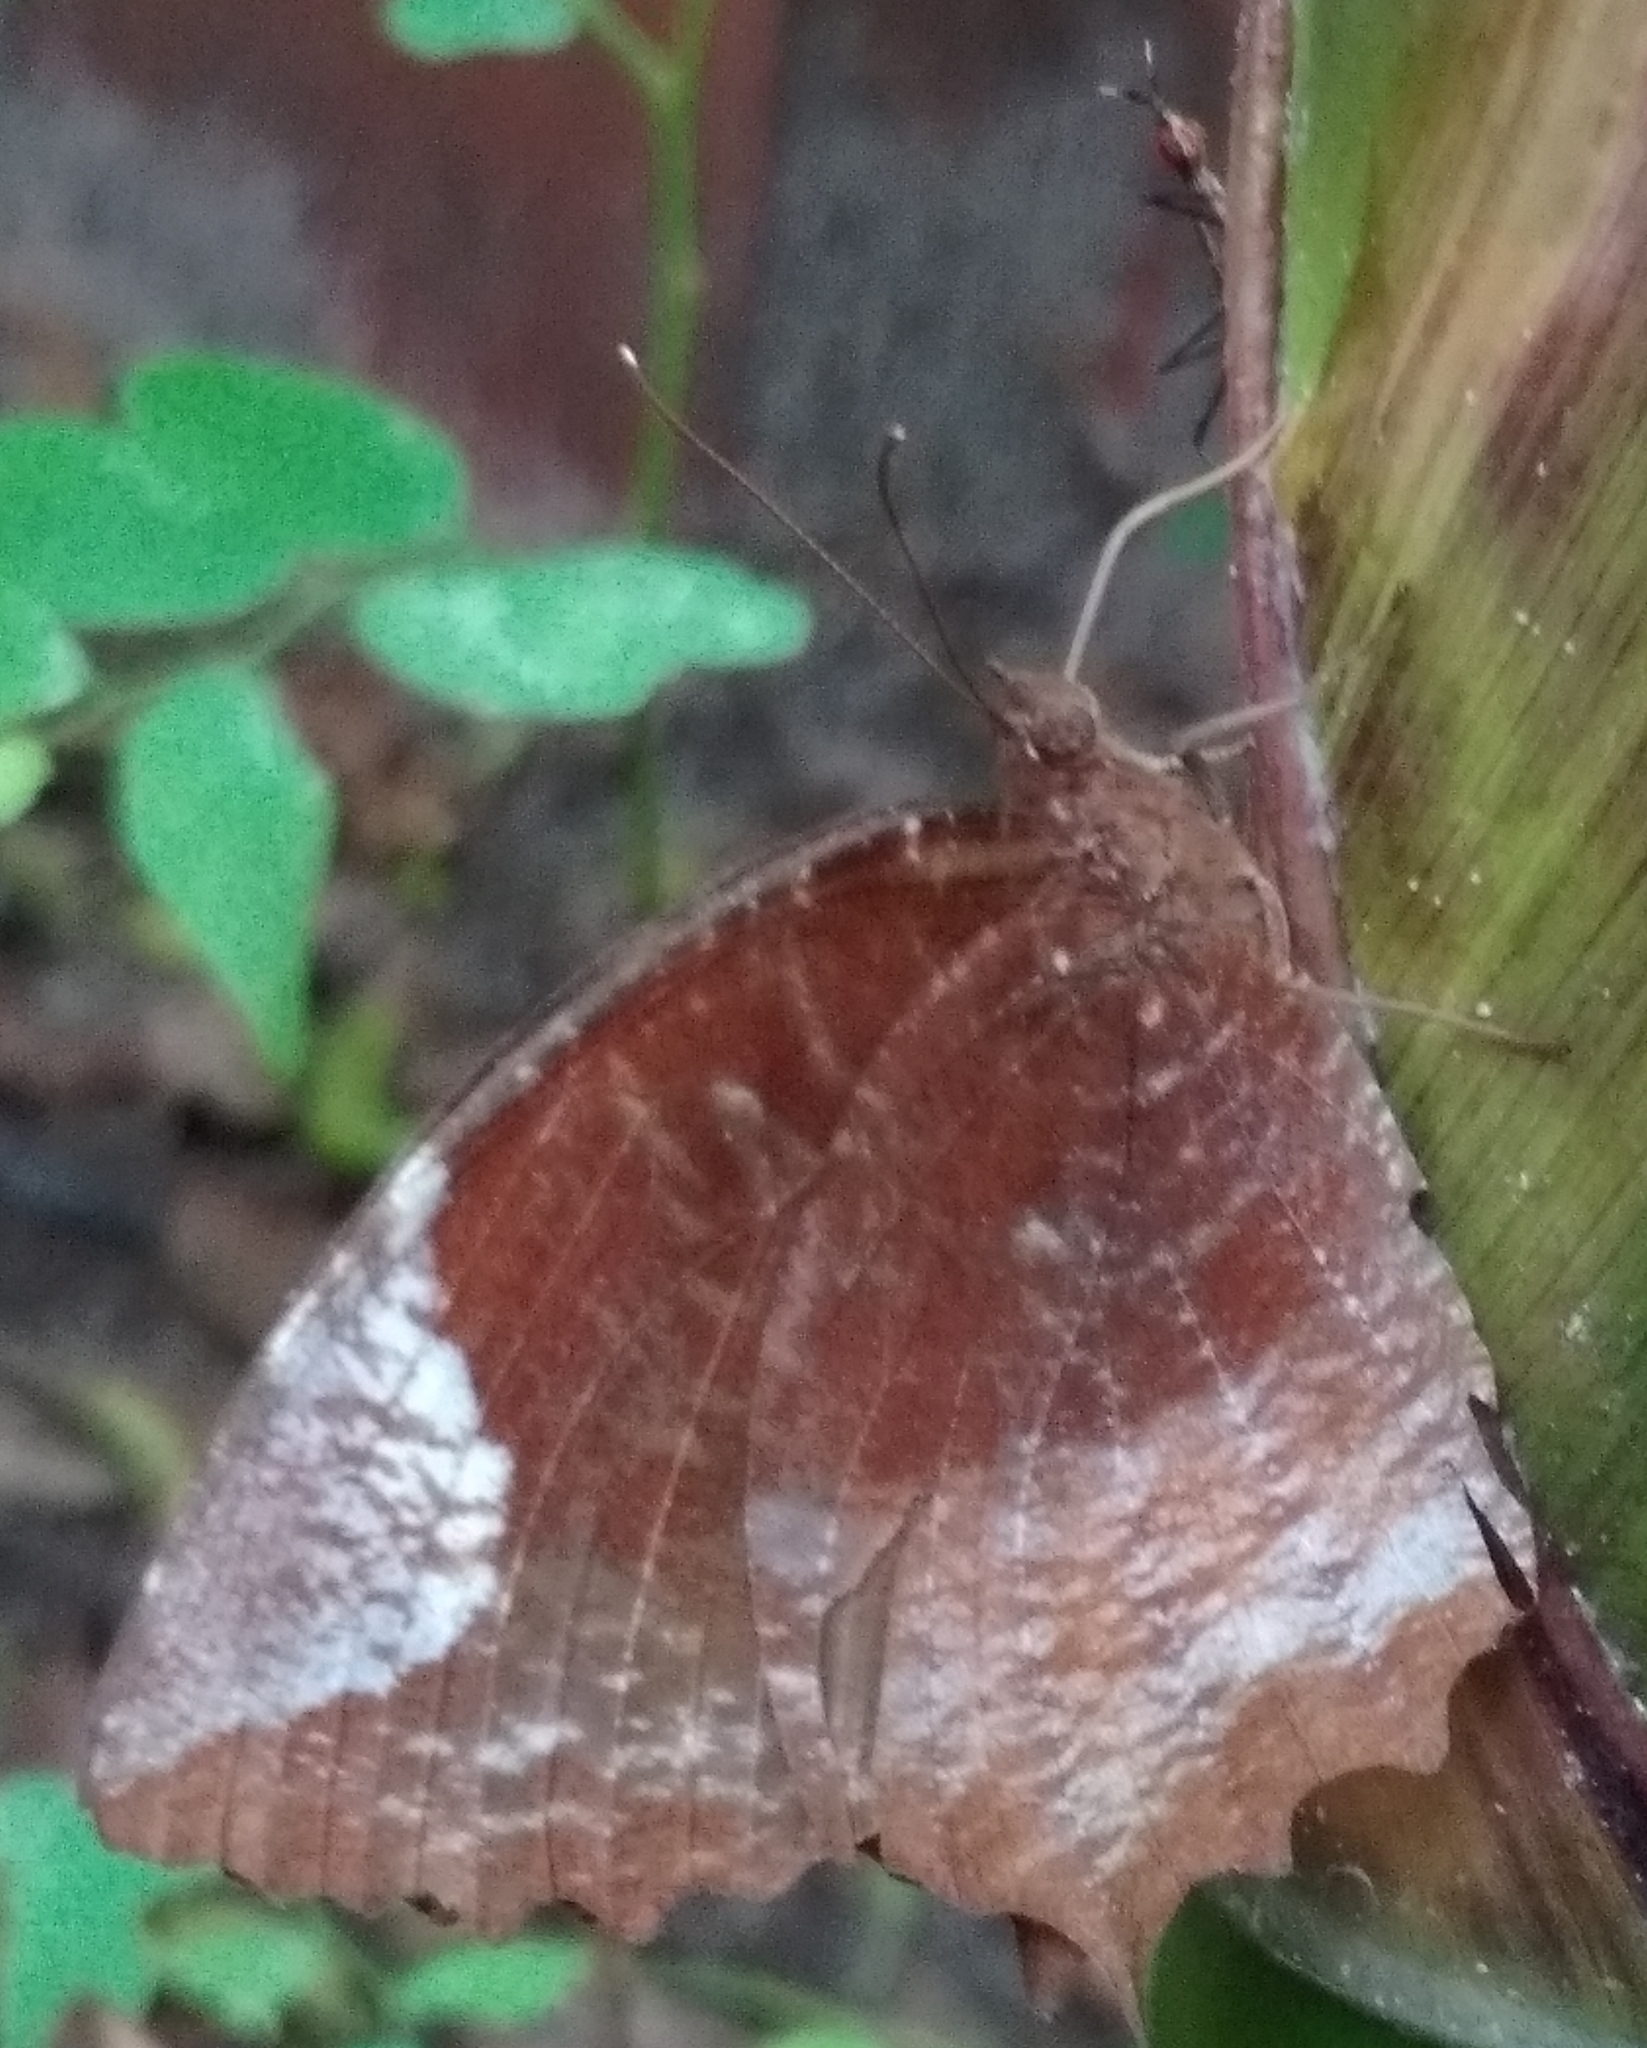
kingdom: Animalia
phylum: Arthropoda
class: Insecta
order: Lepidoptera
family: Nymphalidae
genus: Elymnias
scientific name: Elymnias caudata
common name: Tailed palmfly
